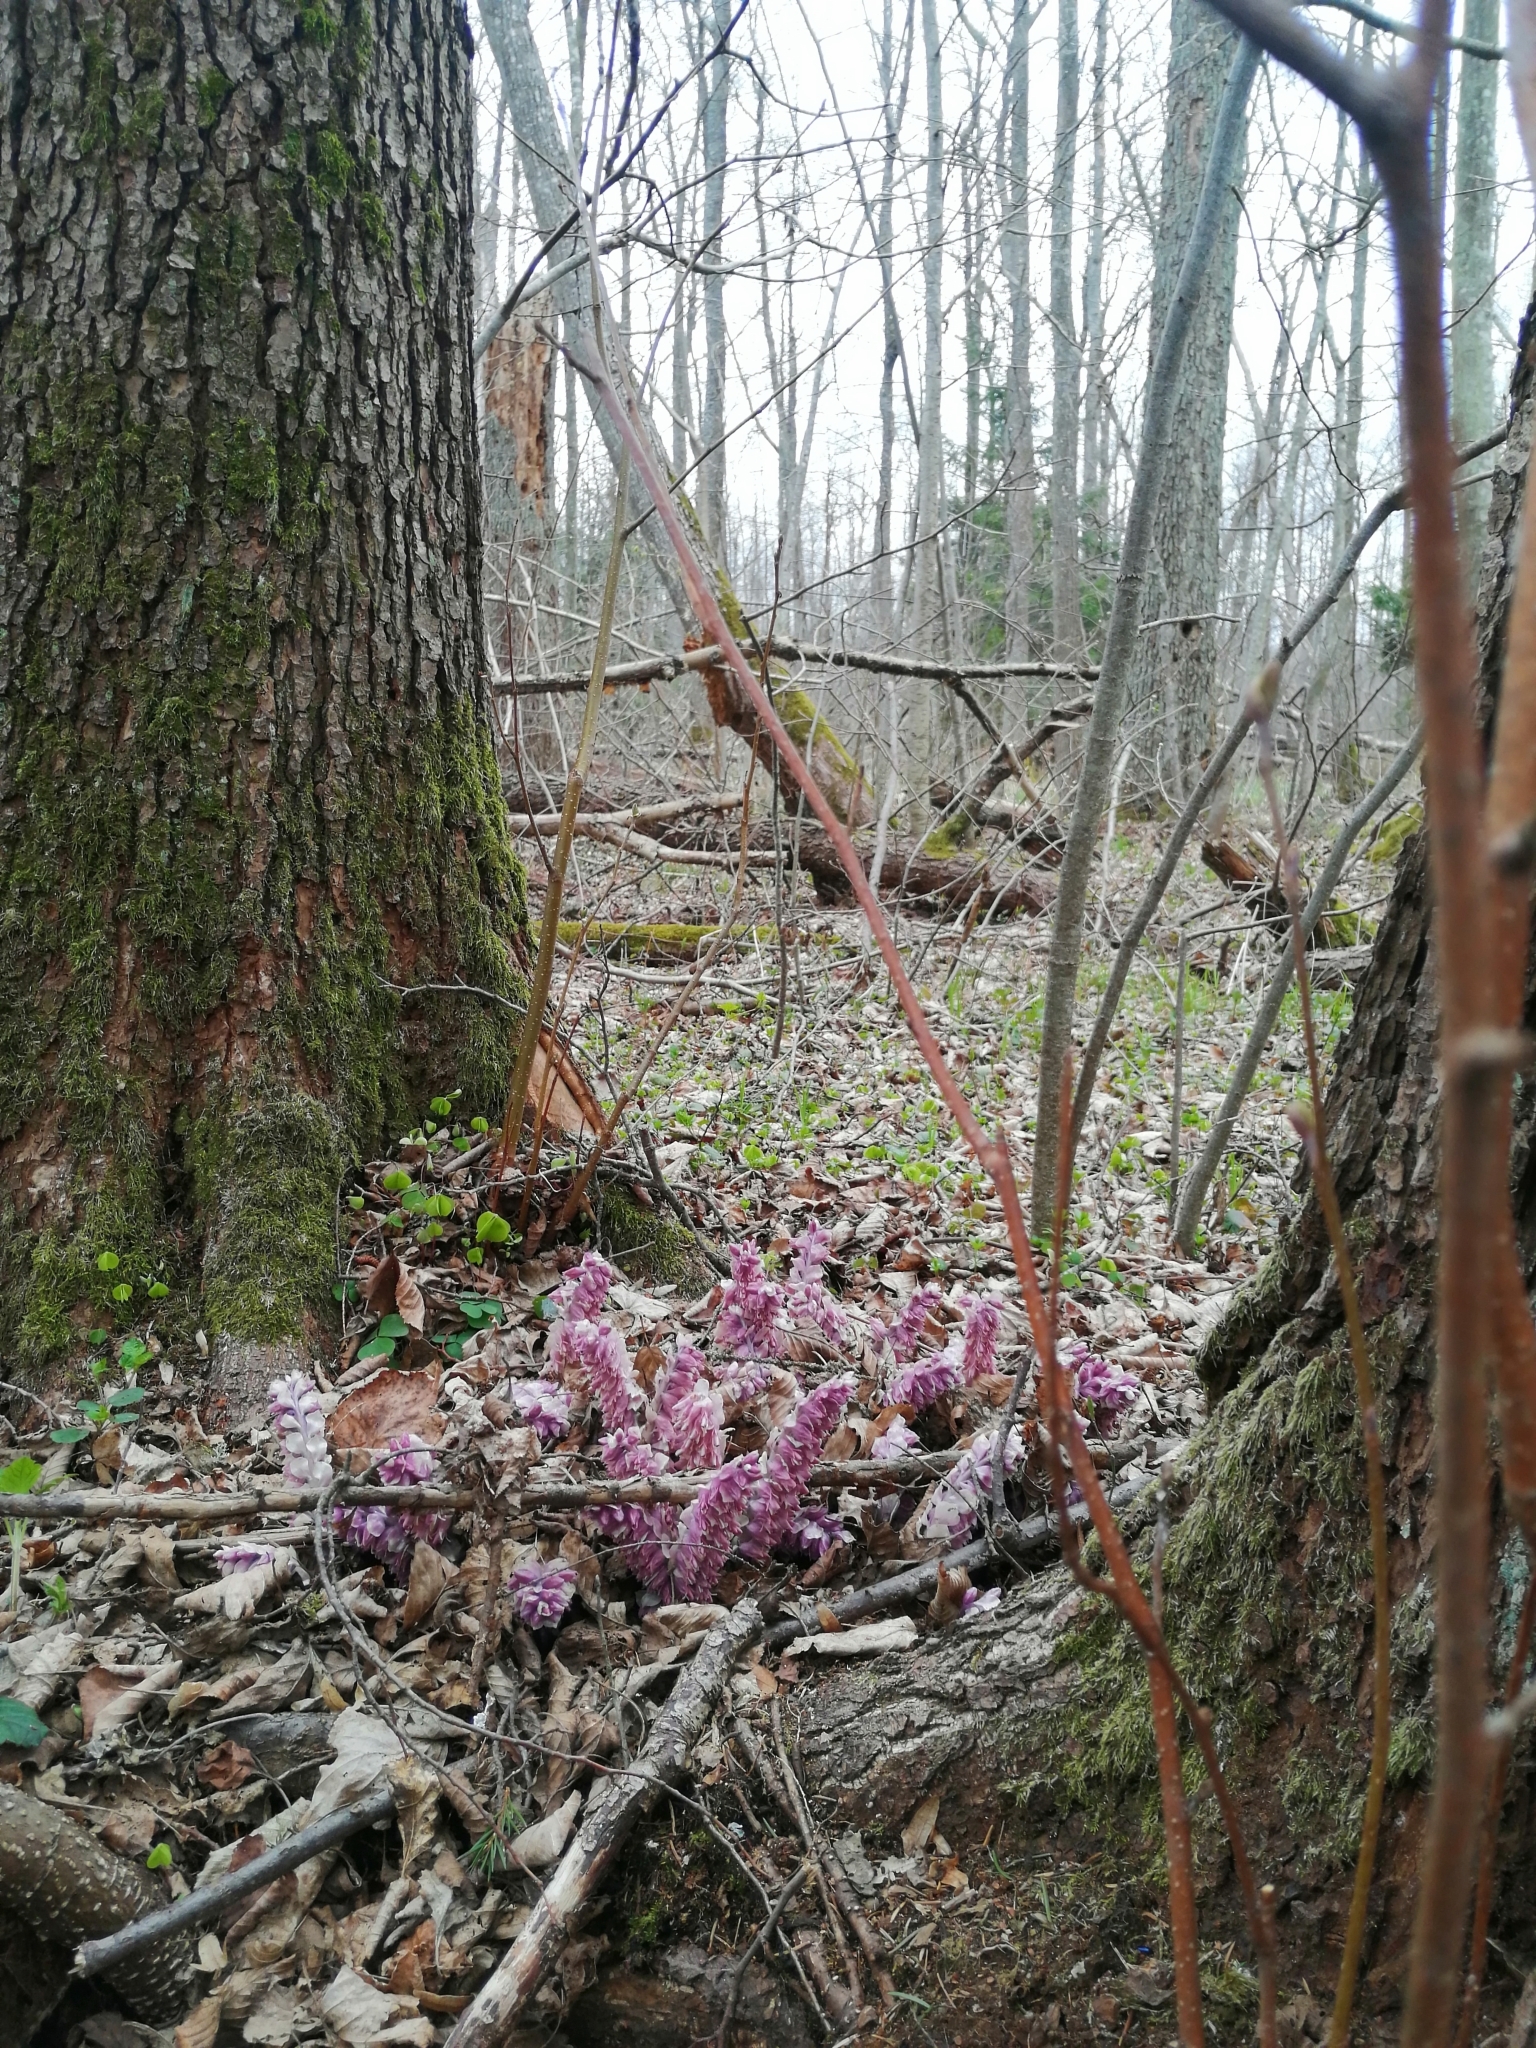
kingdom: Plantae
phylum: Tracheophyta
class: Magnoliopsida
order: Lamiales
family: Orobanchaceae
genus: Lathraea
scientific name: Lathraea squamaria
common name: Toothwort
